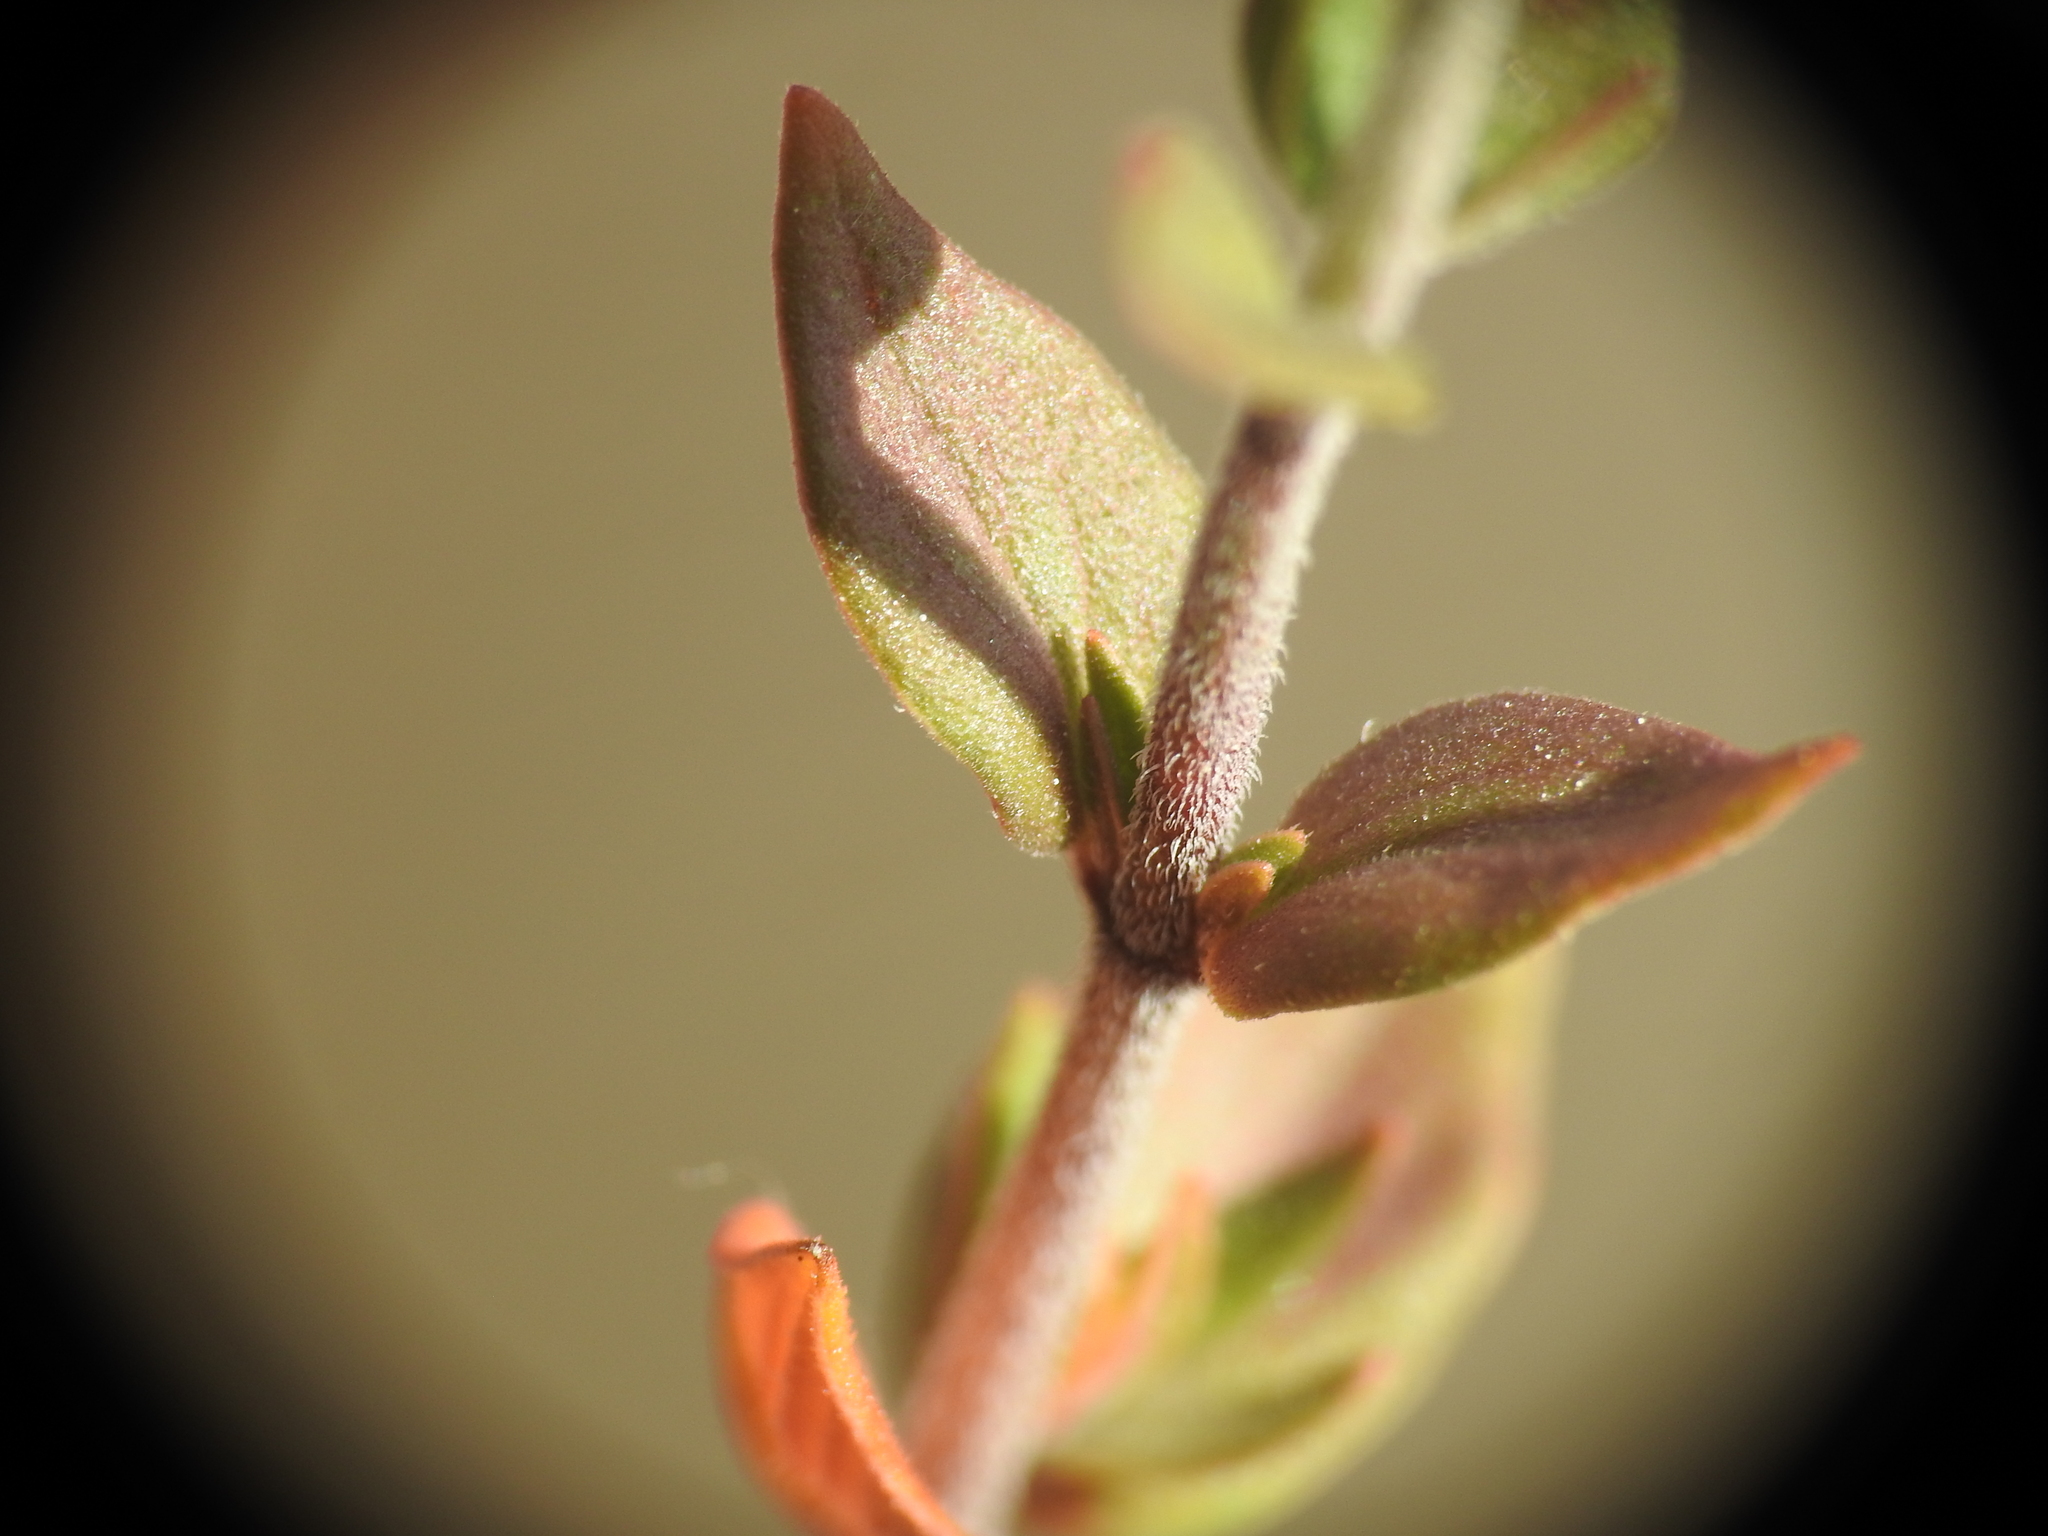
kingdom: Plantae
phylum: Tracheophyta
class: Magnoliopsida
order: Lamiales
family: Lamiaceae
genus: Micromeria
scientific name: Micromeria graeca
